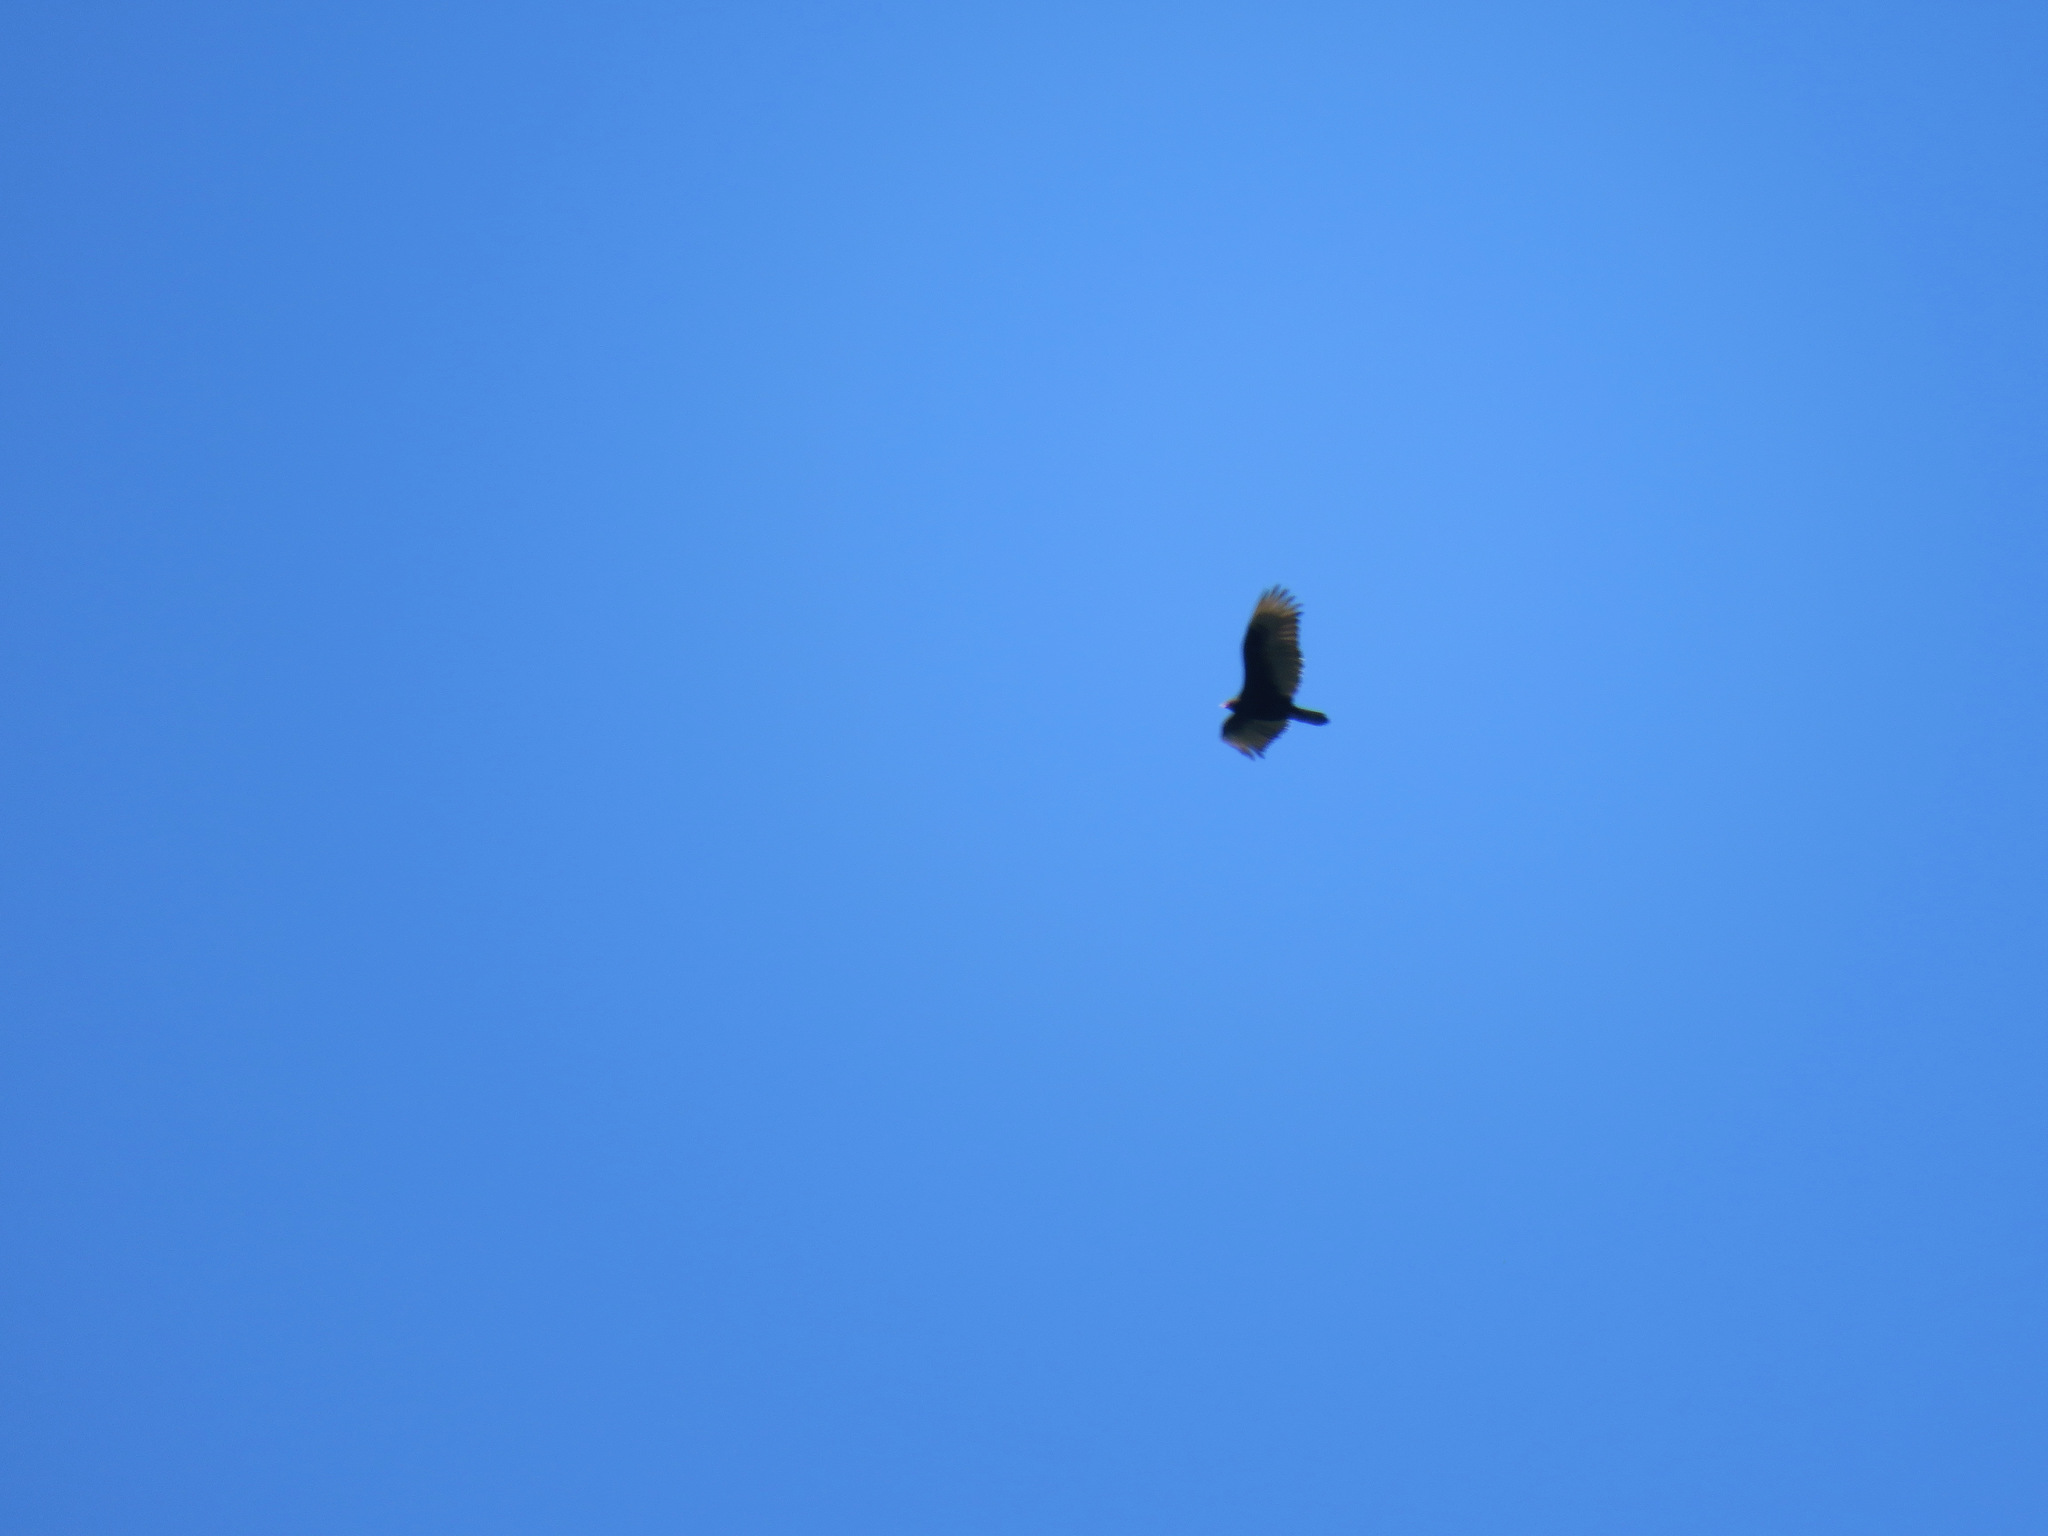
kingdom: Animalia
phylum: Chordata
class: Aves
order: Accipitriformes
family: Cathartidae
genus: Cathartes
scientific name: Cathartes aura
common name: Turkey vulture
